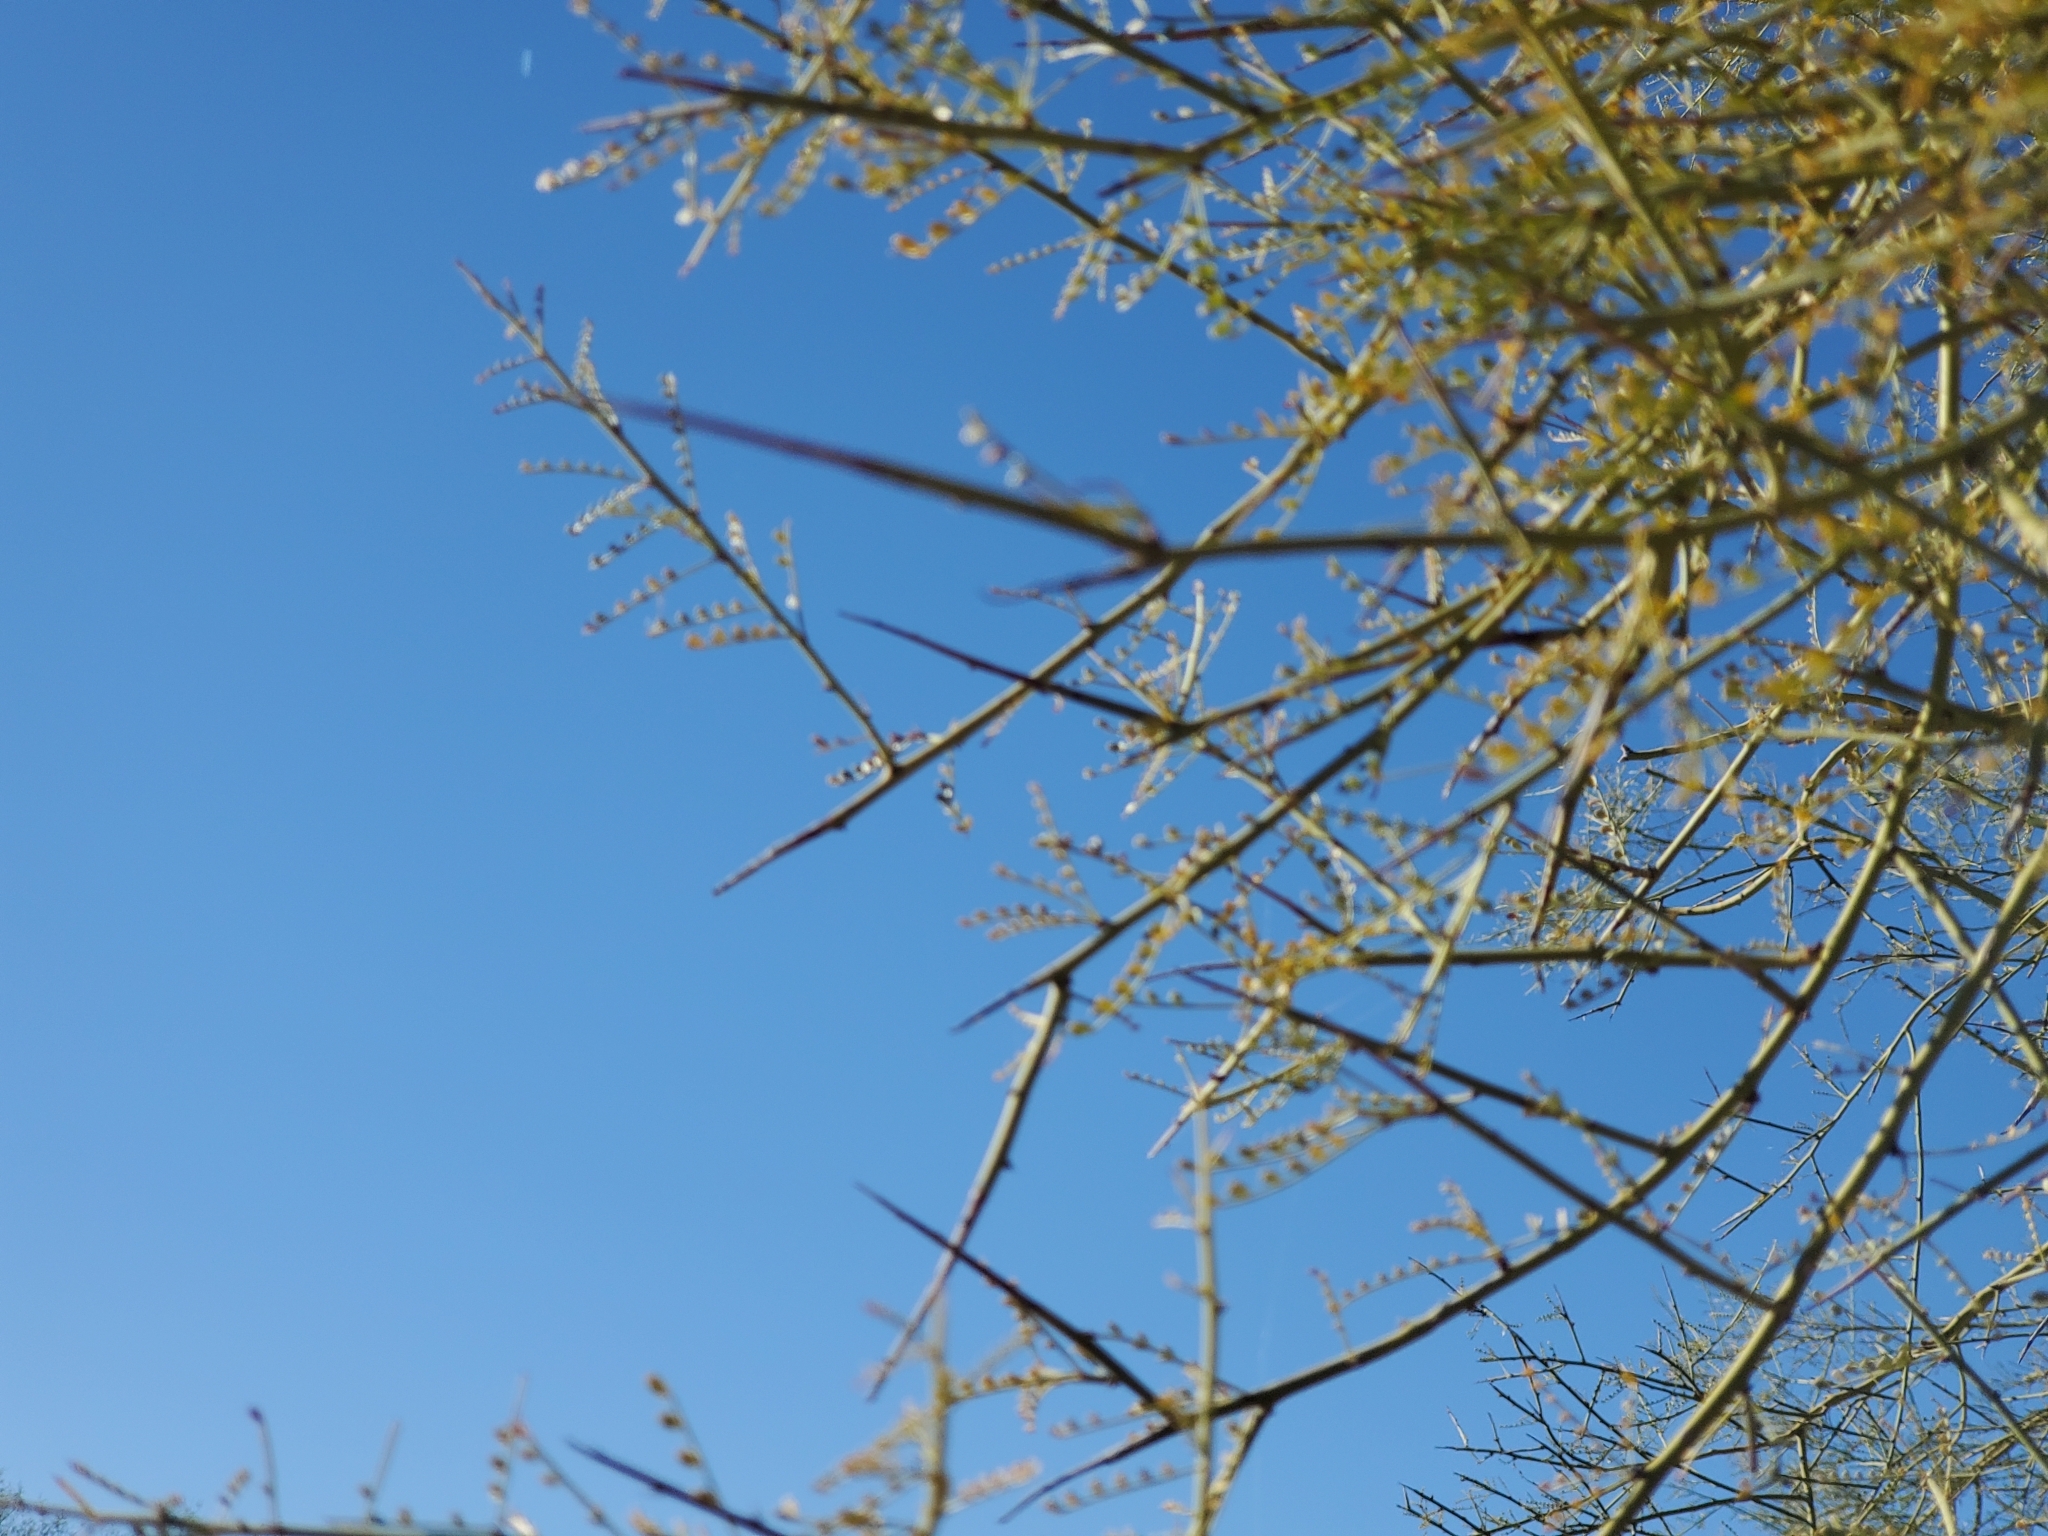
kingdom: Plantae
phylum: Tracheophyta
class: Magnoliopsida
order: Fabales
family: Fabaceae
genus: Parkinsonia
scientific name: Parkinsonia microphylla
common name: Yellow paloverde
